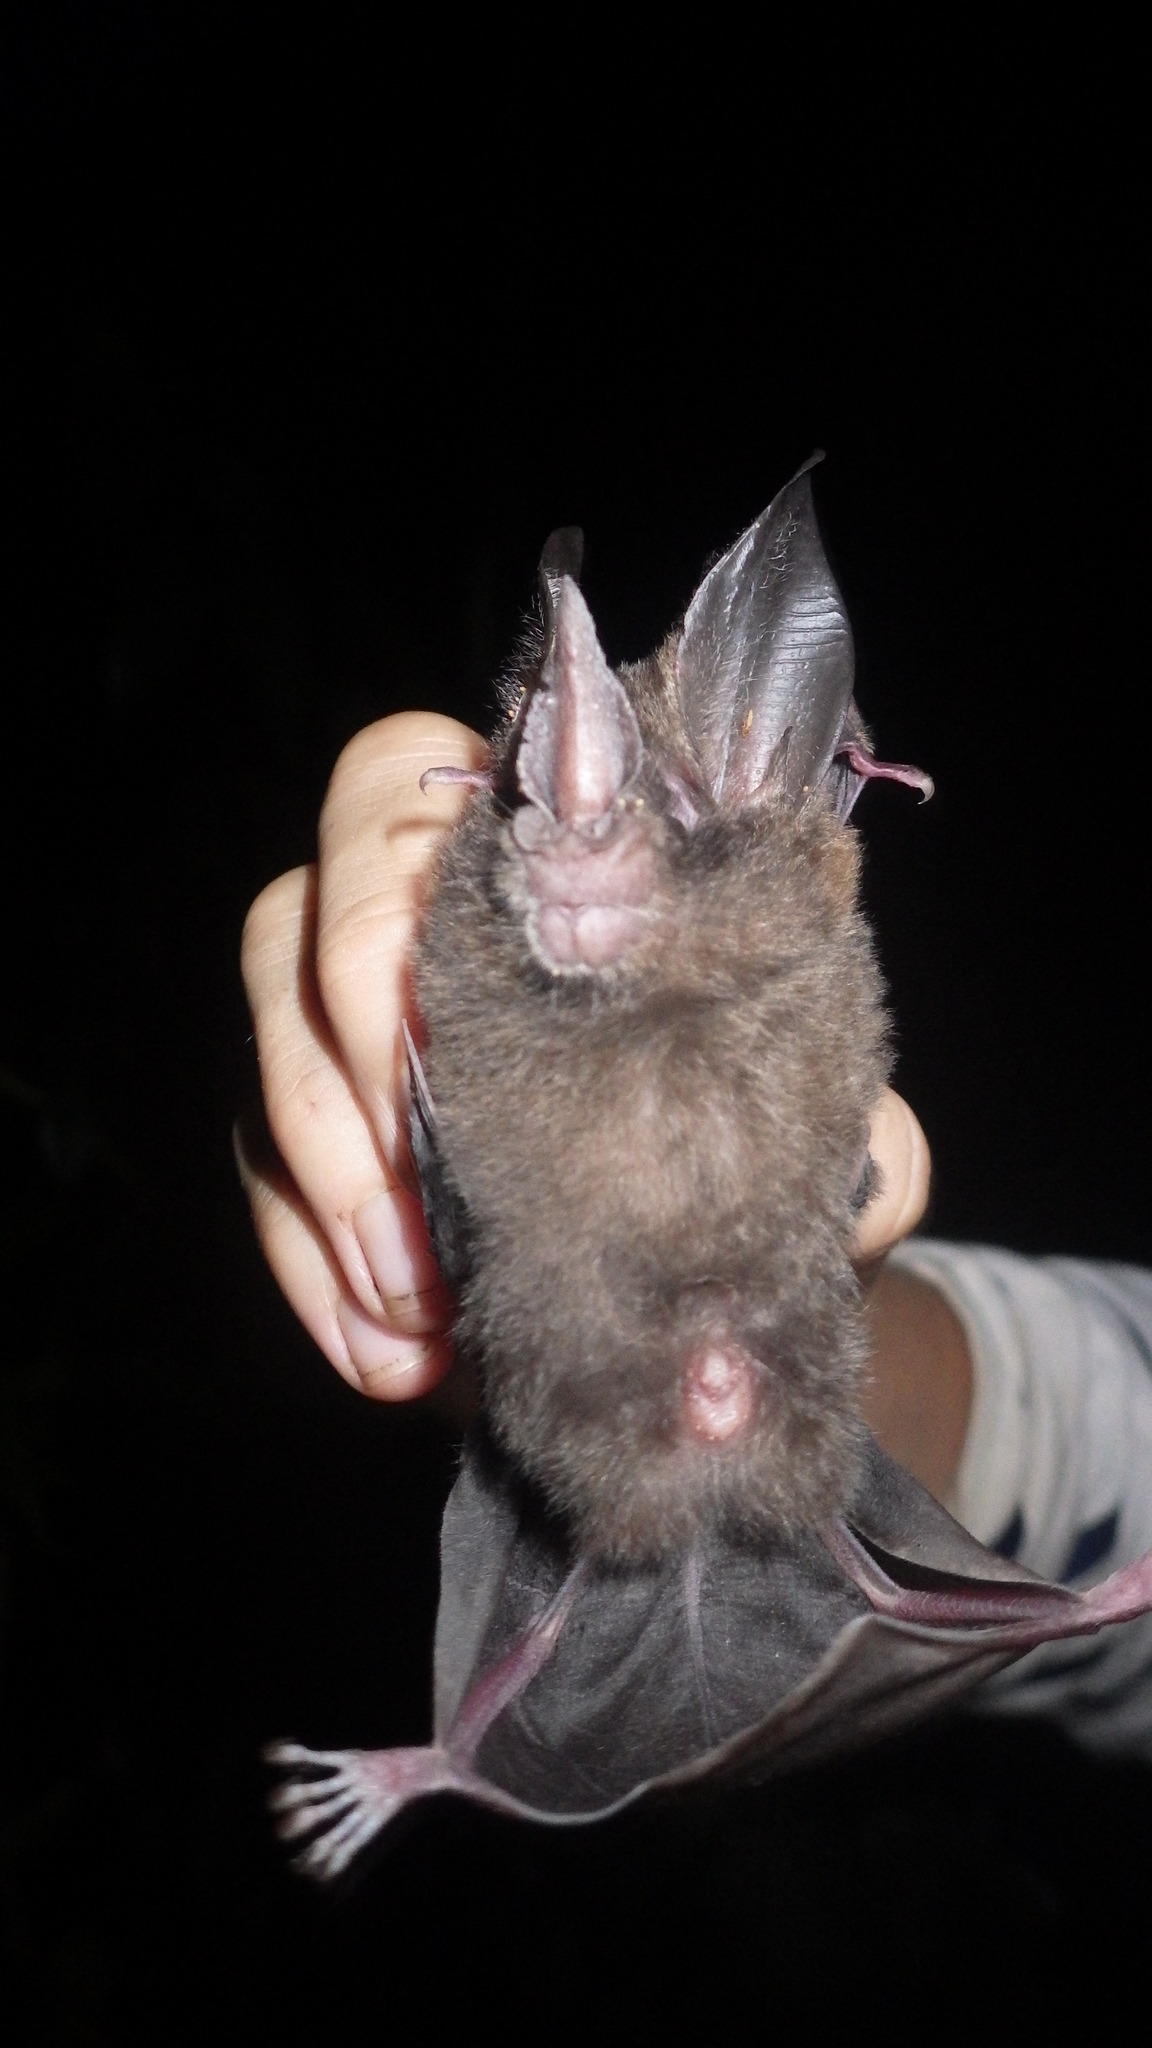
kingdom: Animalia
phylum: Chordata
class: Mammalia
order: Chiroptera
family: Phyllostomidae
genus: Mimon
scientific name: Mimon bennettii
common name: Southern golden bat
